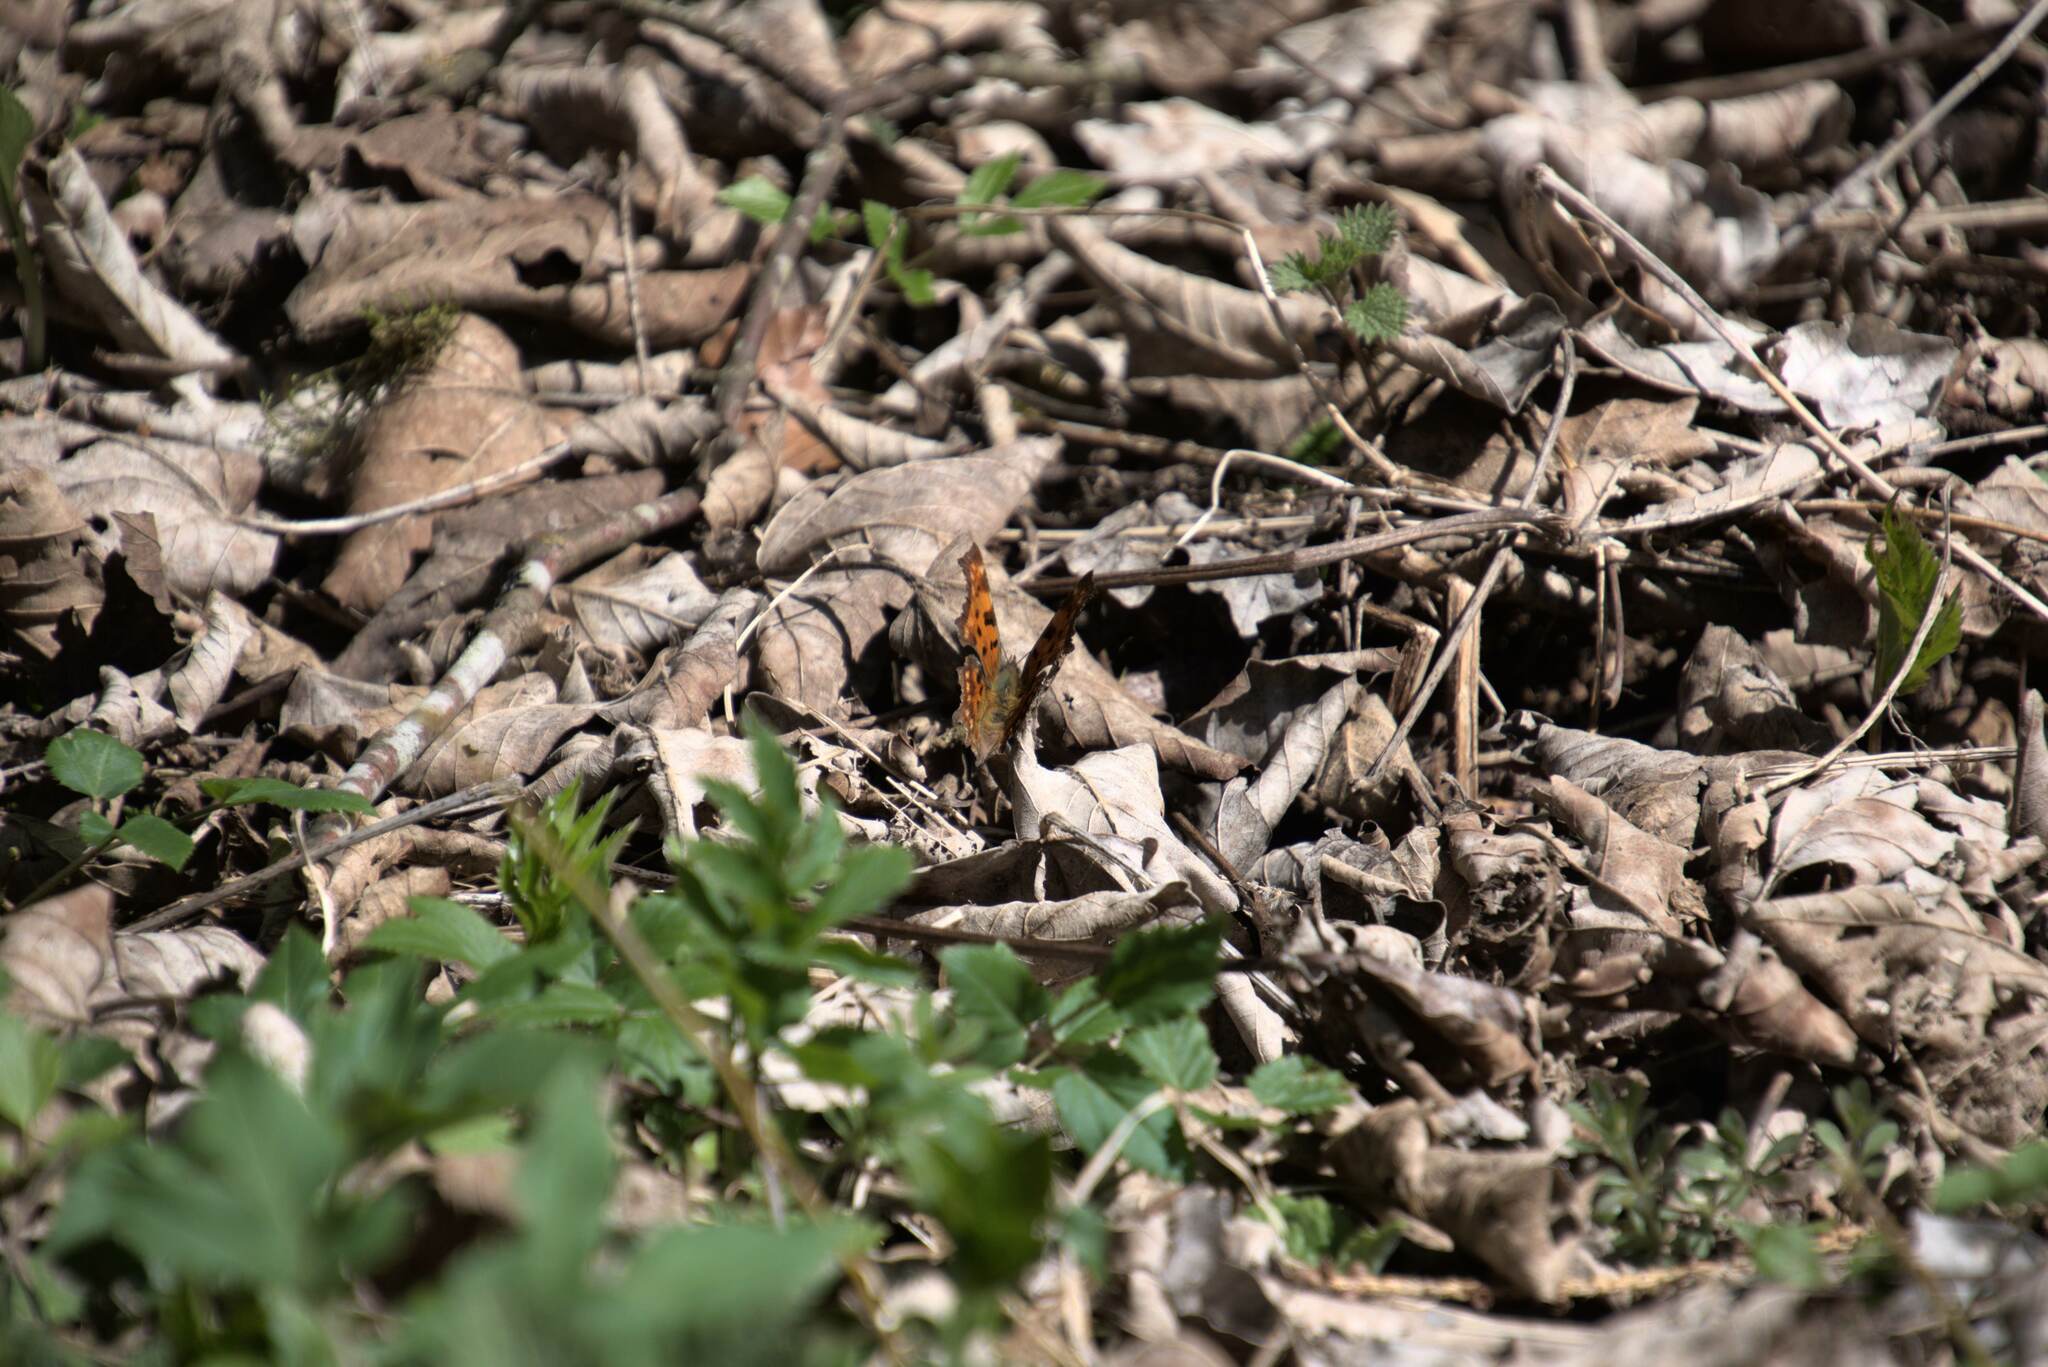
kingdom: Animalia
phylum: Arthropoda
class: Insecta
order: Lepidoptera
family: Nymphalidae
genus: Polygonia
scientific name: Polygonia c-album
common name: Comma
